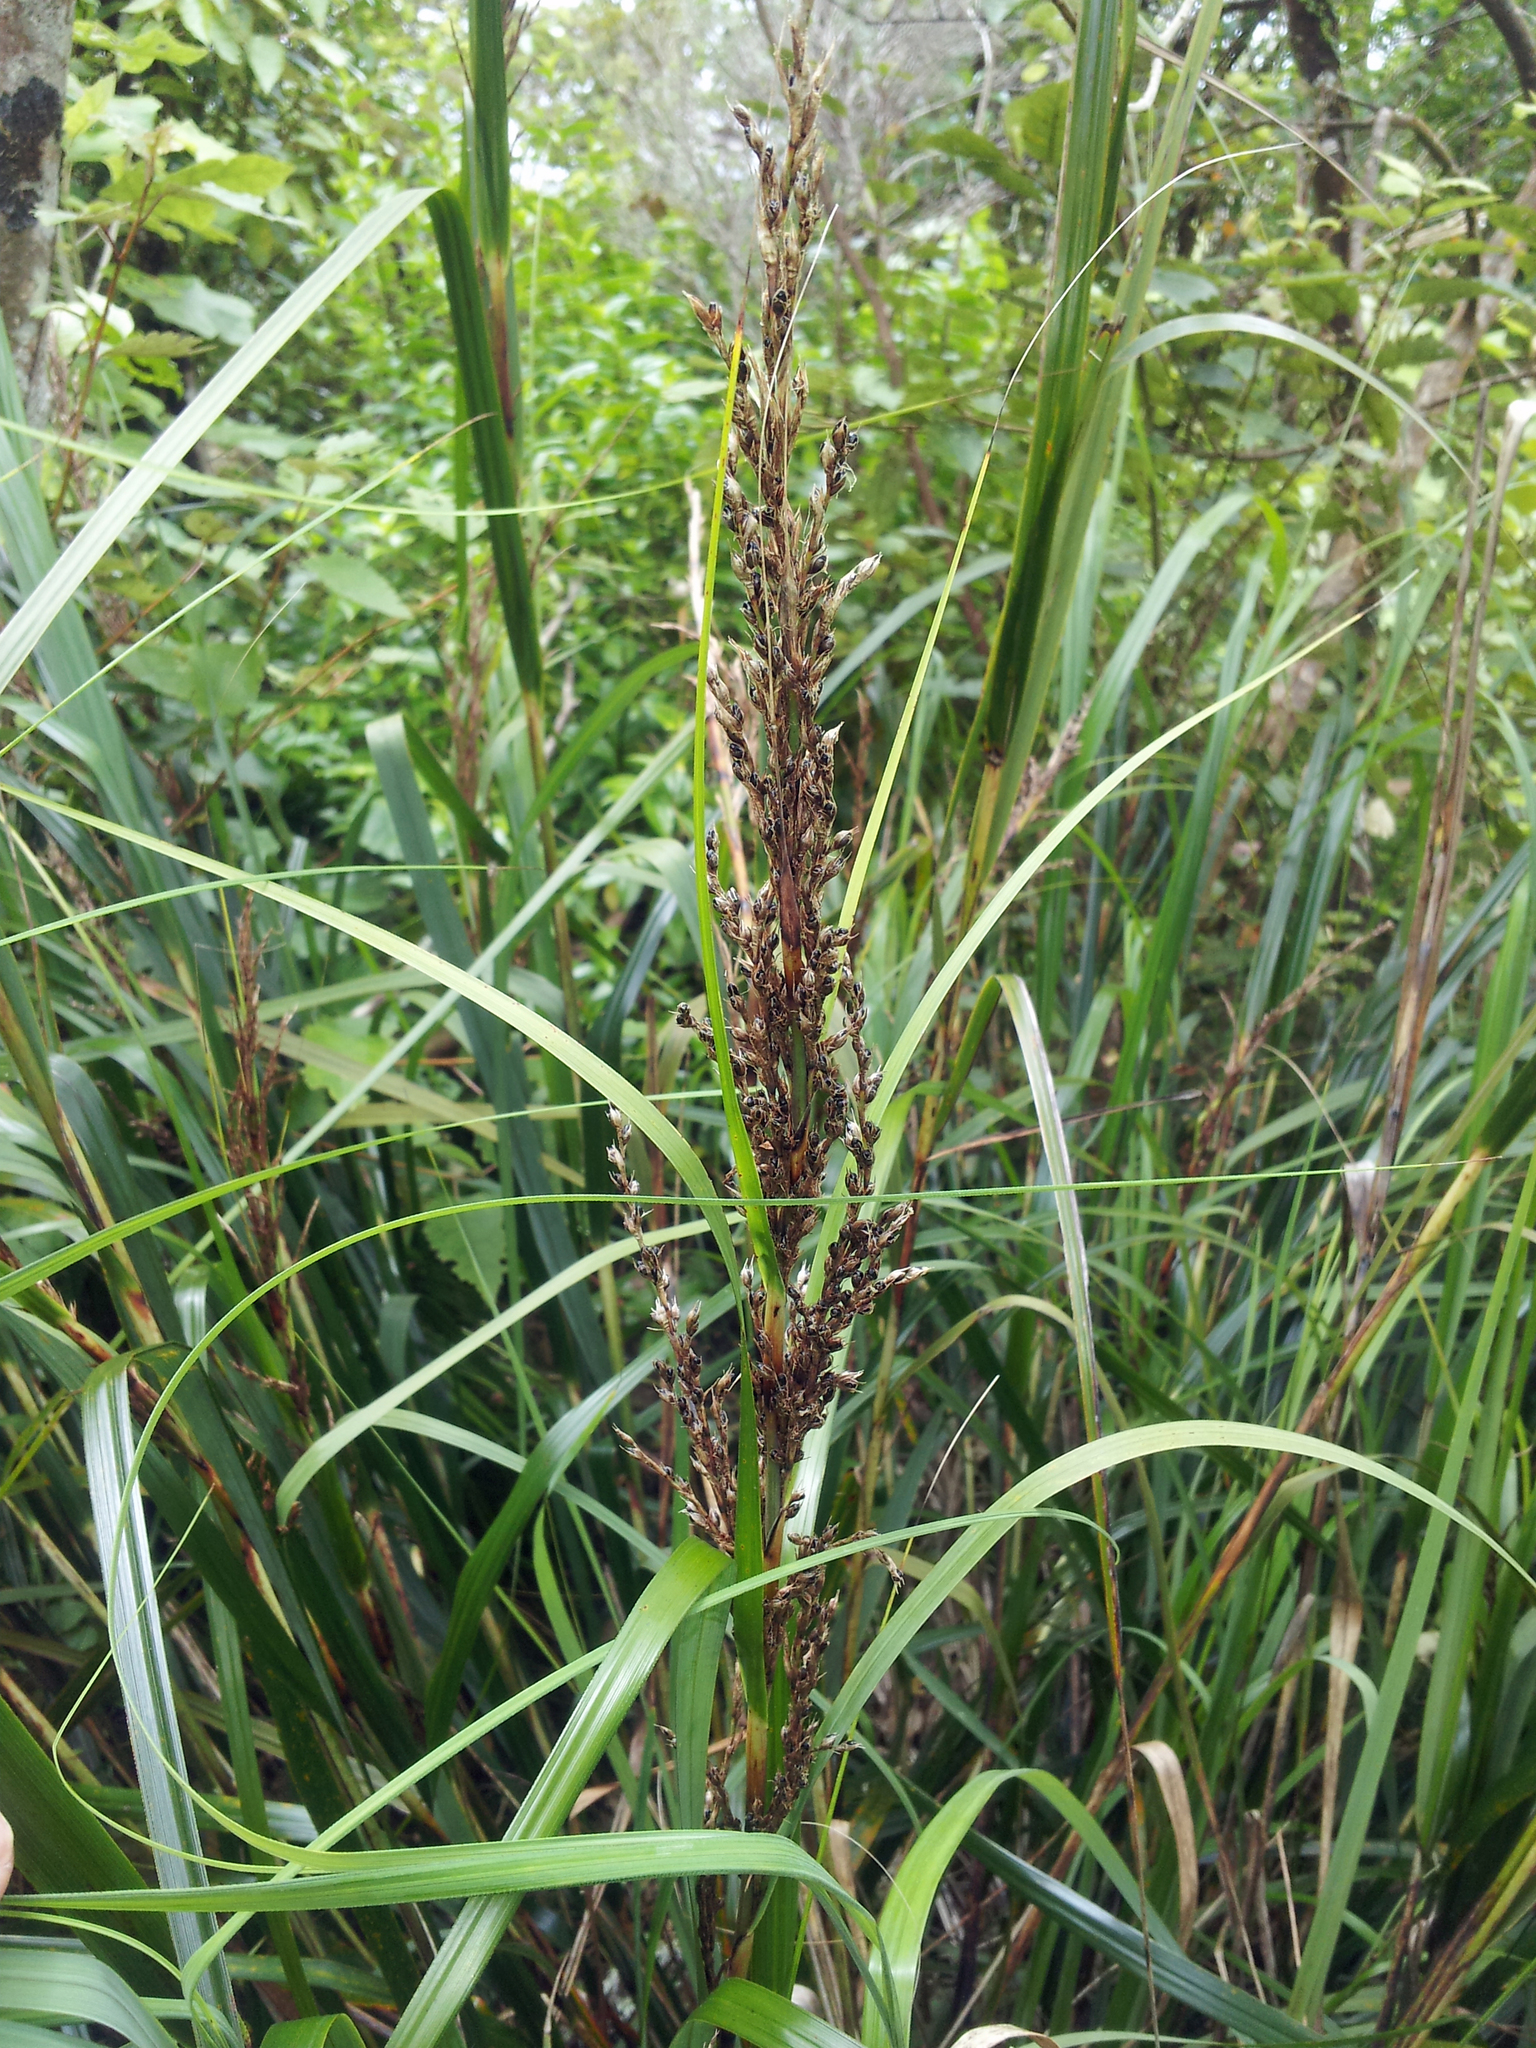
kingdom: Plantae
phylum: Tracheophyta
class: Liliopsida
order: Poales
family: Cyperaceae
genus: Gahnia
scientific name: Gahnia lacera
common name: Sawsedge
